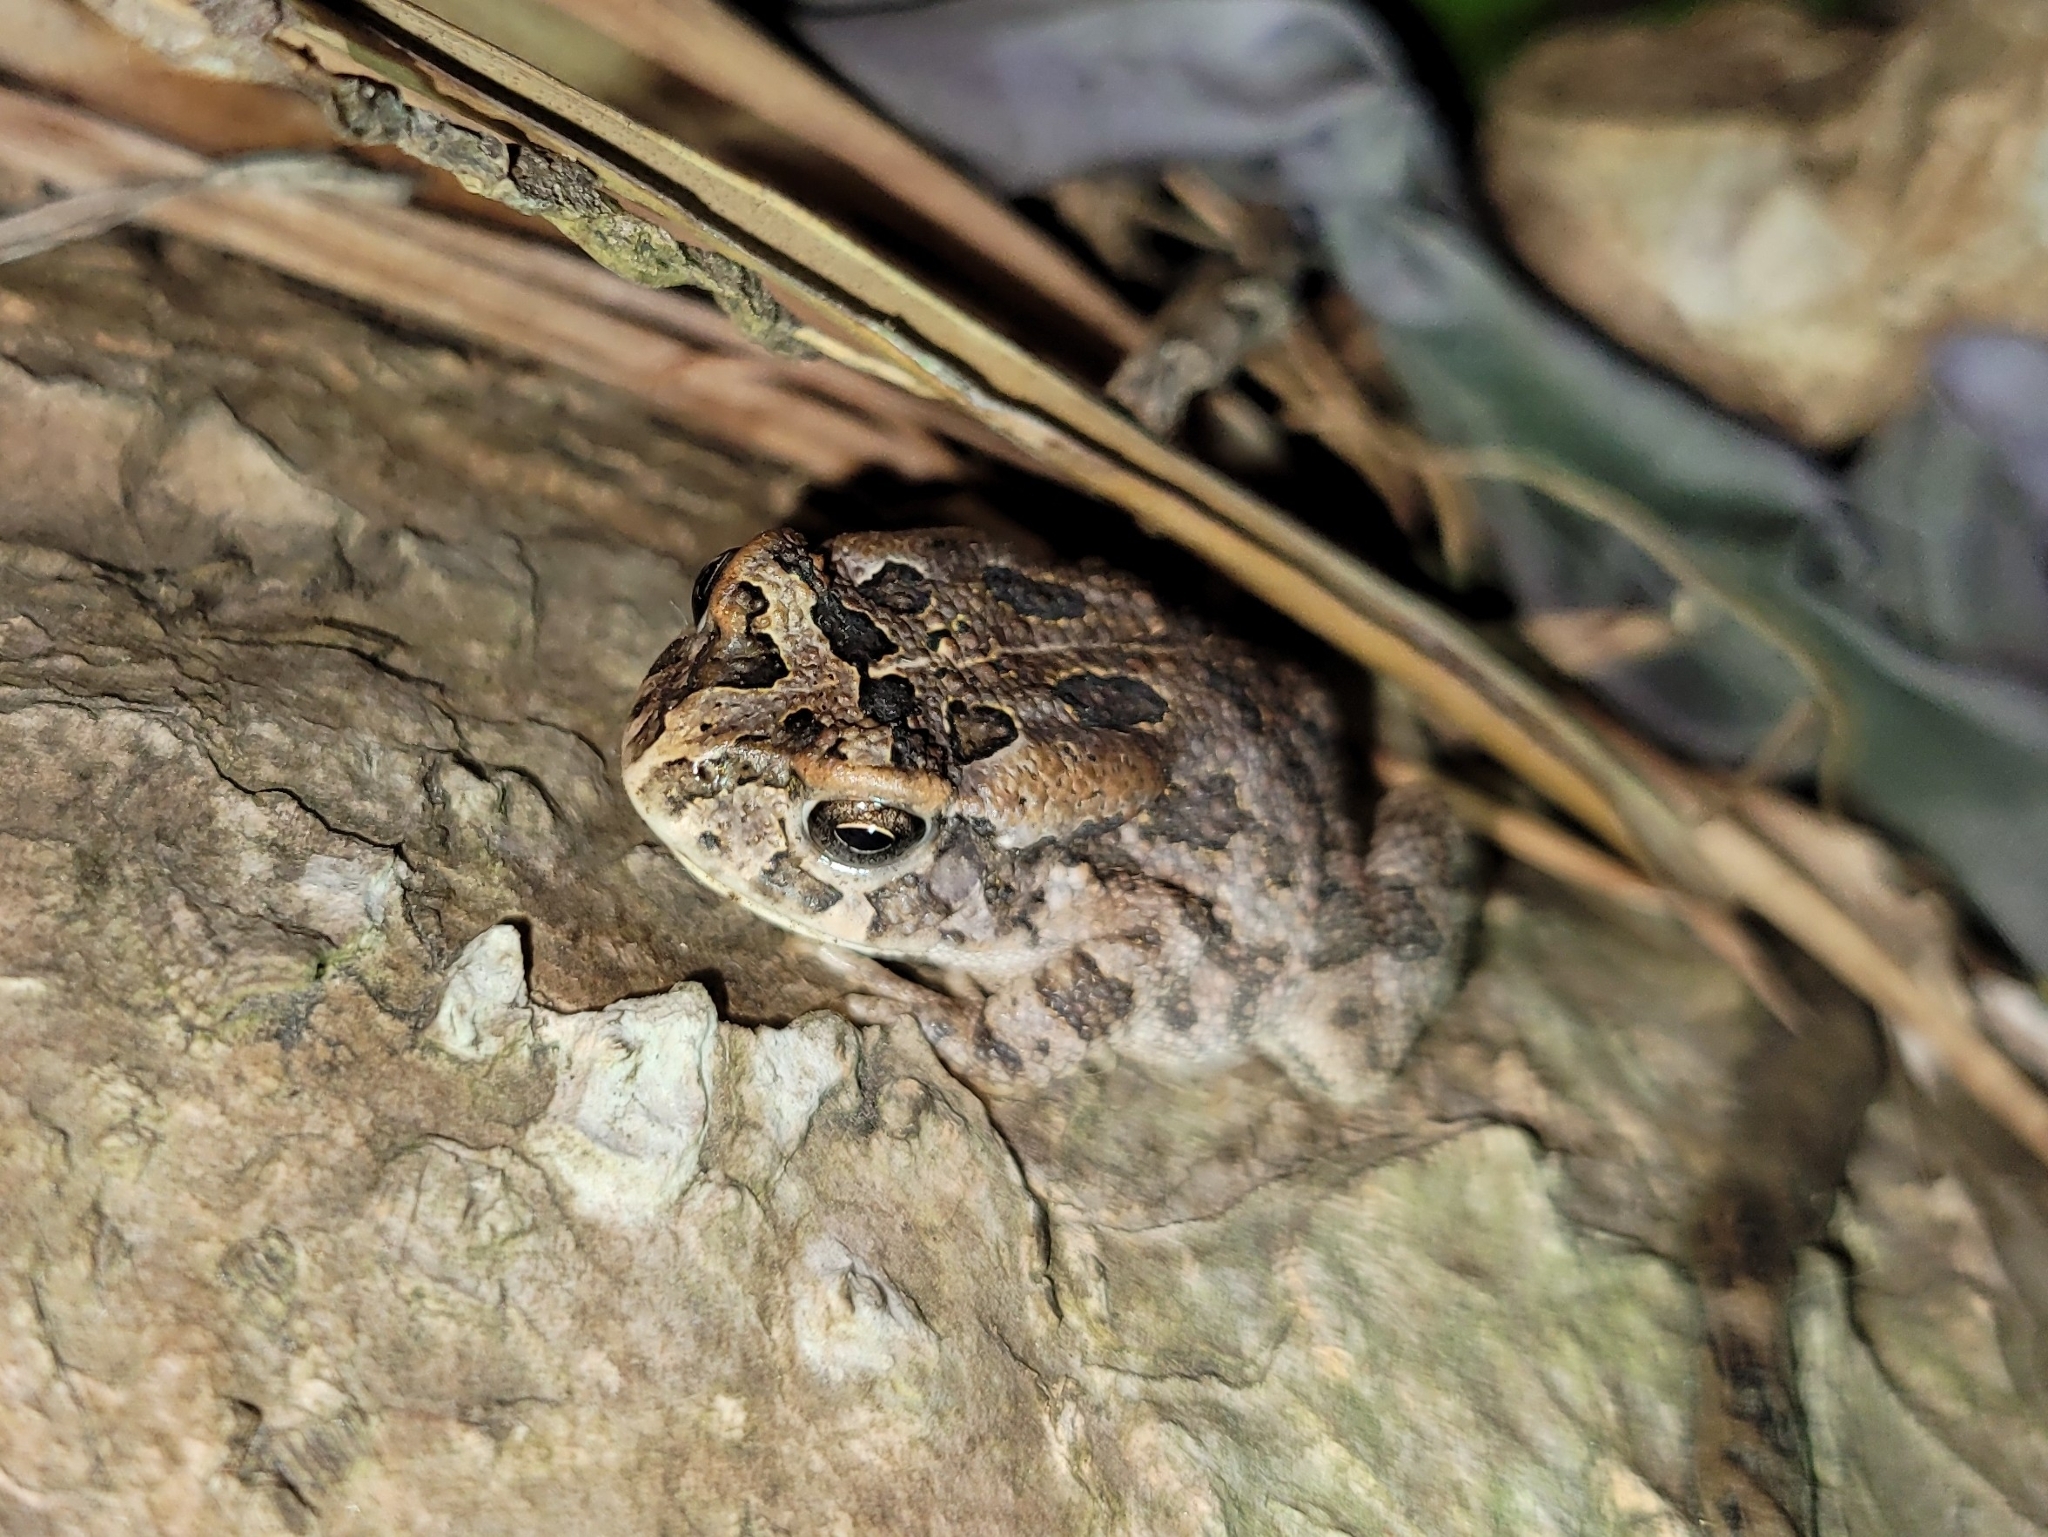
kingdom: Animalia
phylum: Chordata
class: Amphibia
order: Anura
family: Bufonidae
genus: Sclerophrys
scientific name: Sclerophrys gutturalis
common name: African common toad
